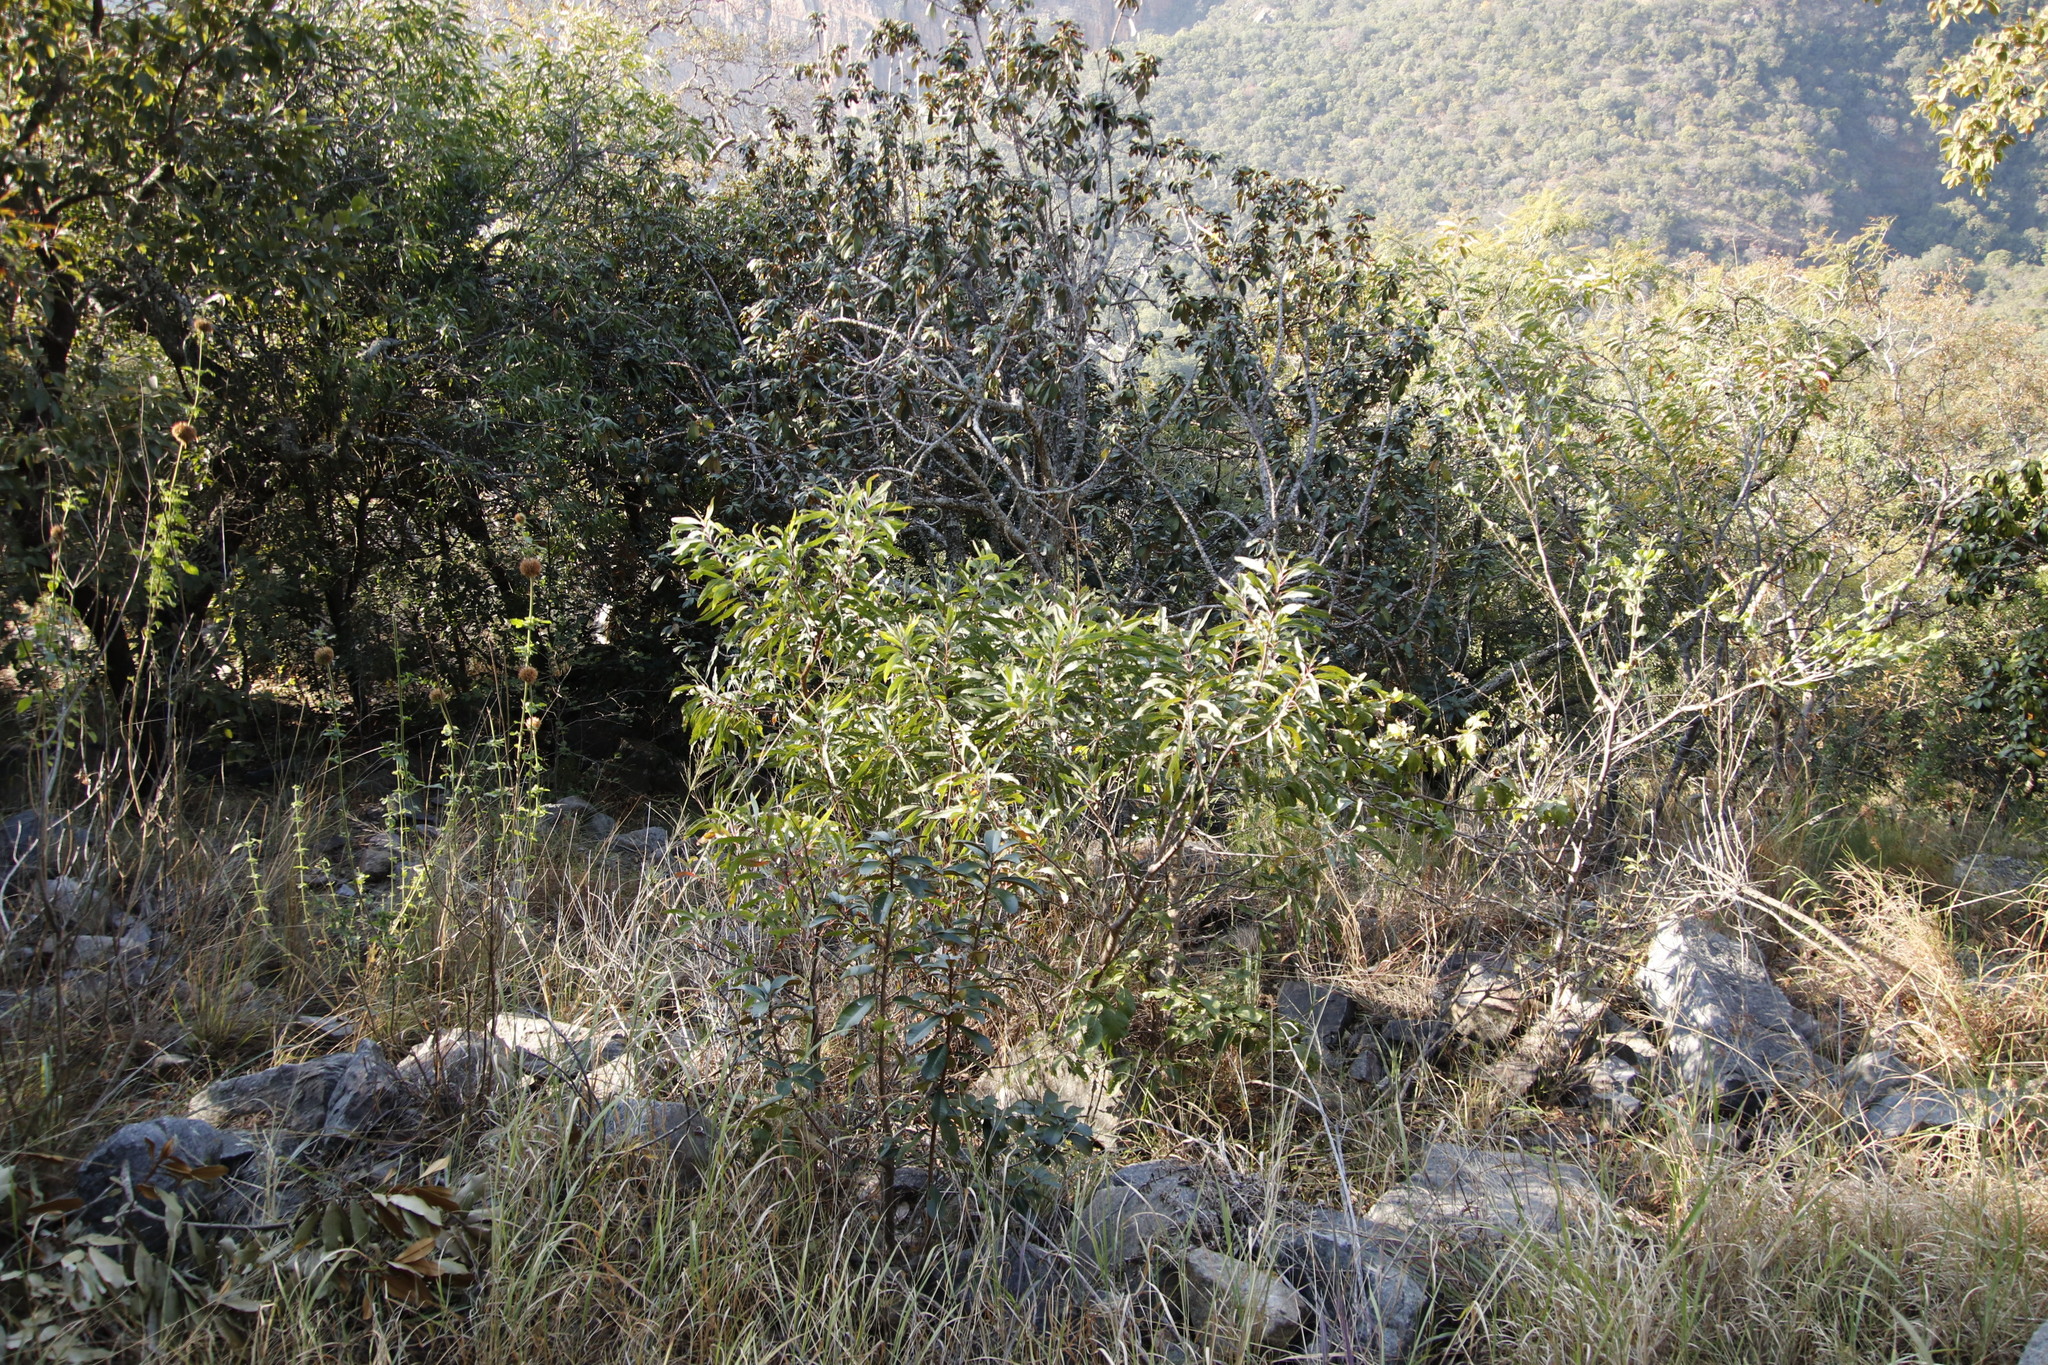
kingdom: Plantae
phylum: Tracheophyta
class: Magnoliopsida
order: Proteales
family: Proteaceae
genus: Faurea
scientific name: Faurea saligna
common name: African bean
